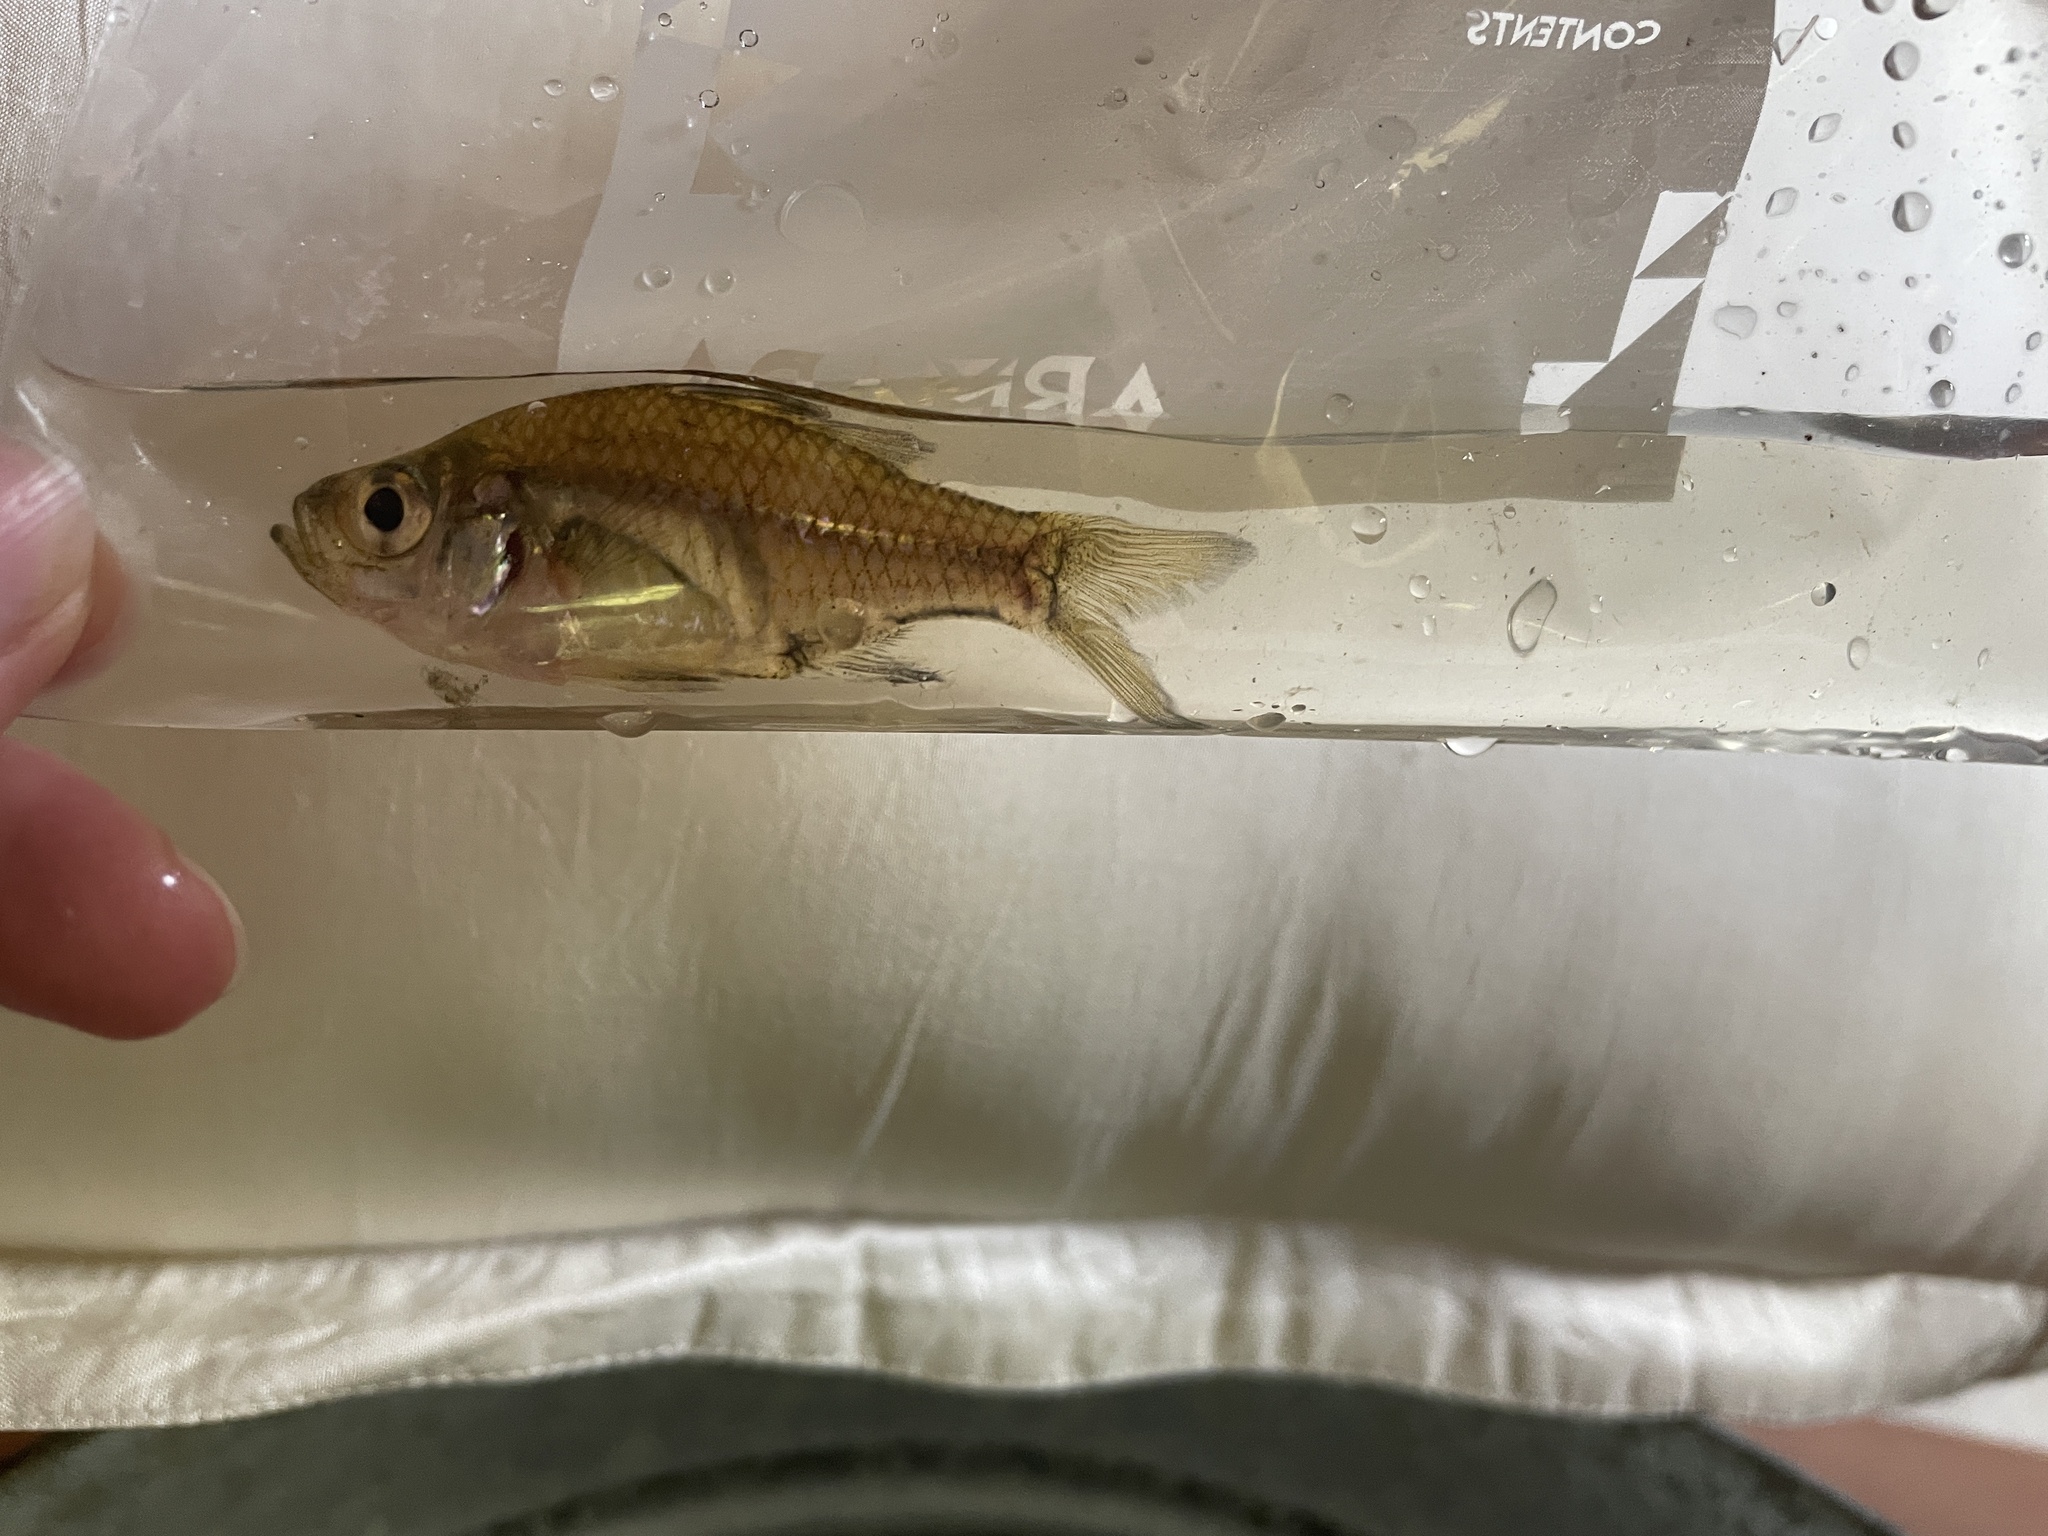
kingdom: Animalia
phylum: Chordata
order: Perciformes
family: Ambassidae
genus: Ambassis
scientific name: Ambassis
